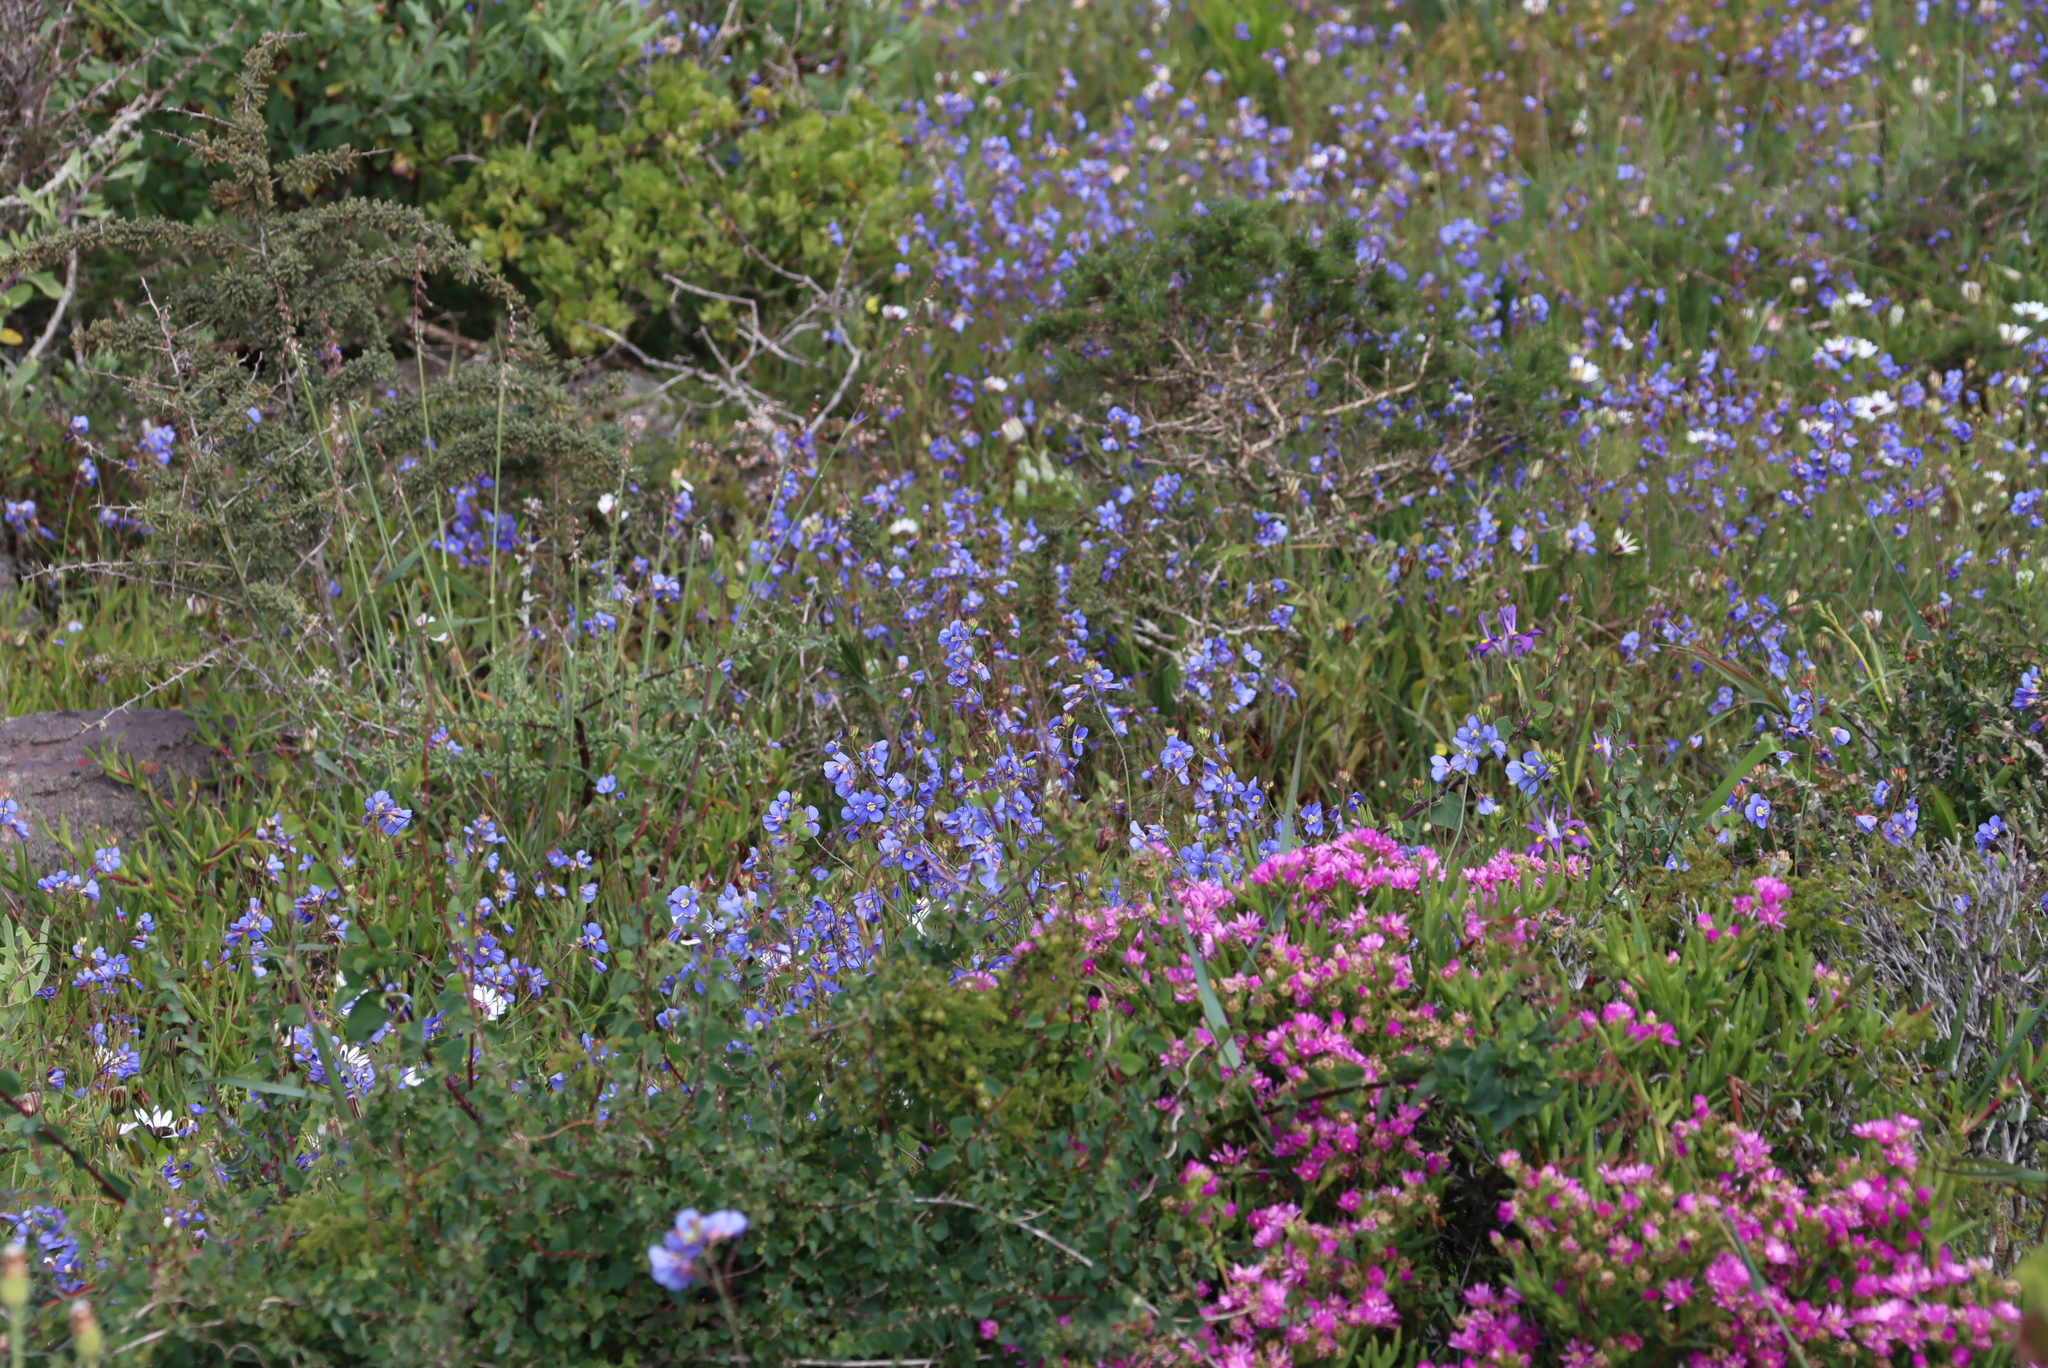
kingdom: Plantae
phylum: Tracheophyta
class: Magnoliopsida
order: Brassicales
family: Brassicaceae
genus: Heliophila
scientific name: Heliophila coronopifolia
